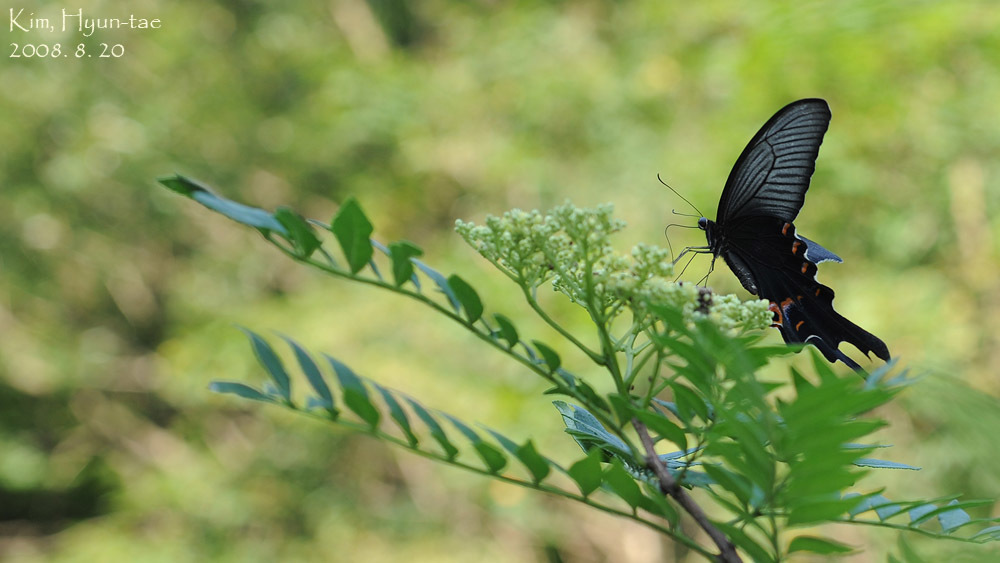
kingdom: Animalia
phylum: Arthropoda
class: Insecta
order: Lepidoptera
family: Papilionidae
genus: Papilio
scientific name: Papilio macilentus
